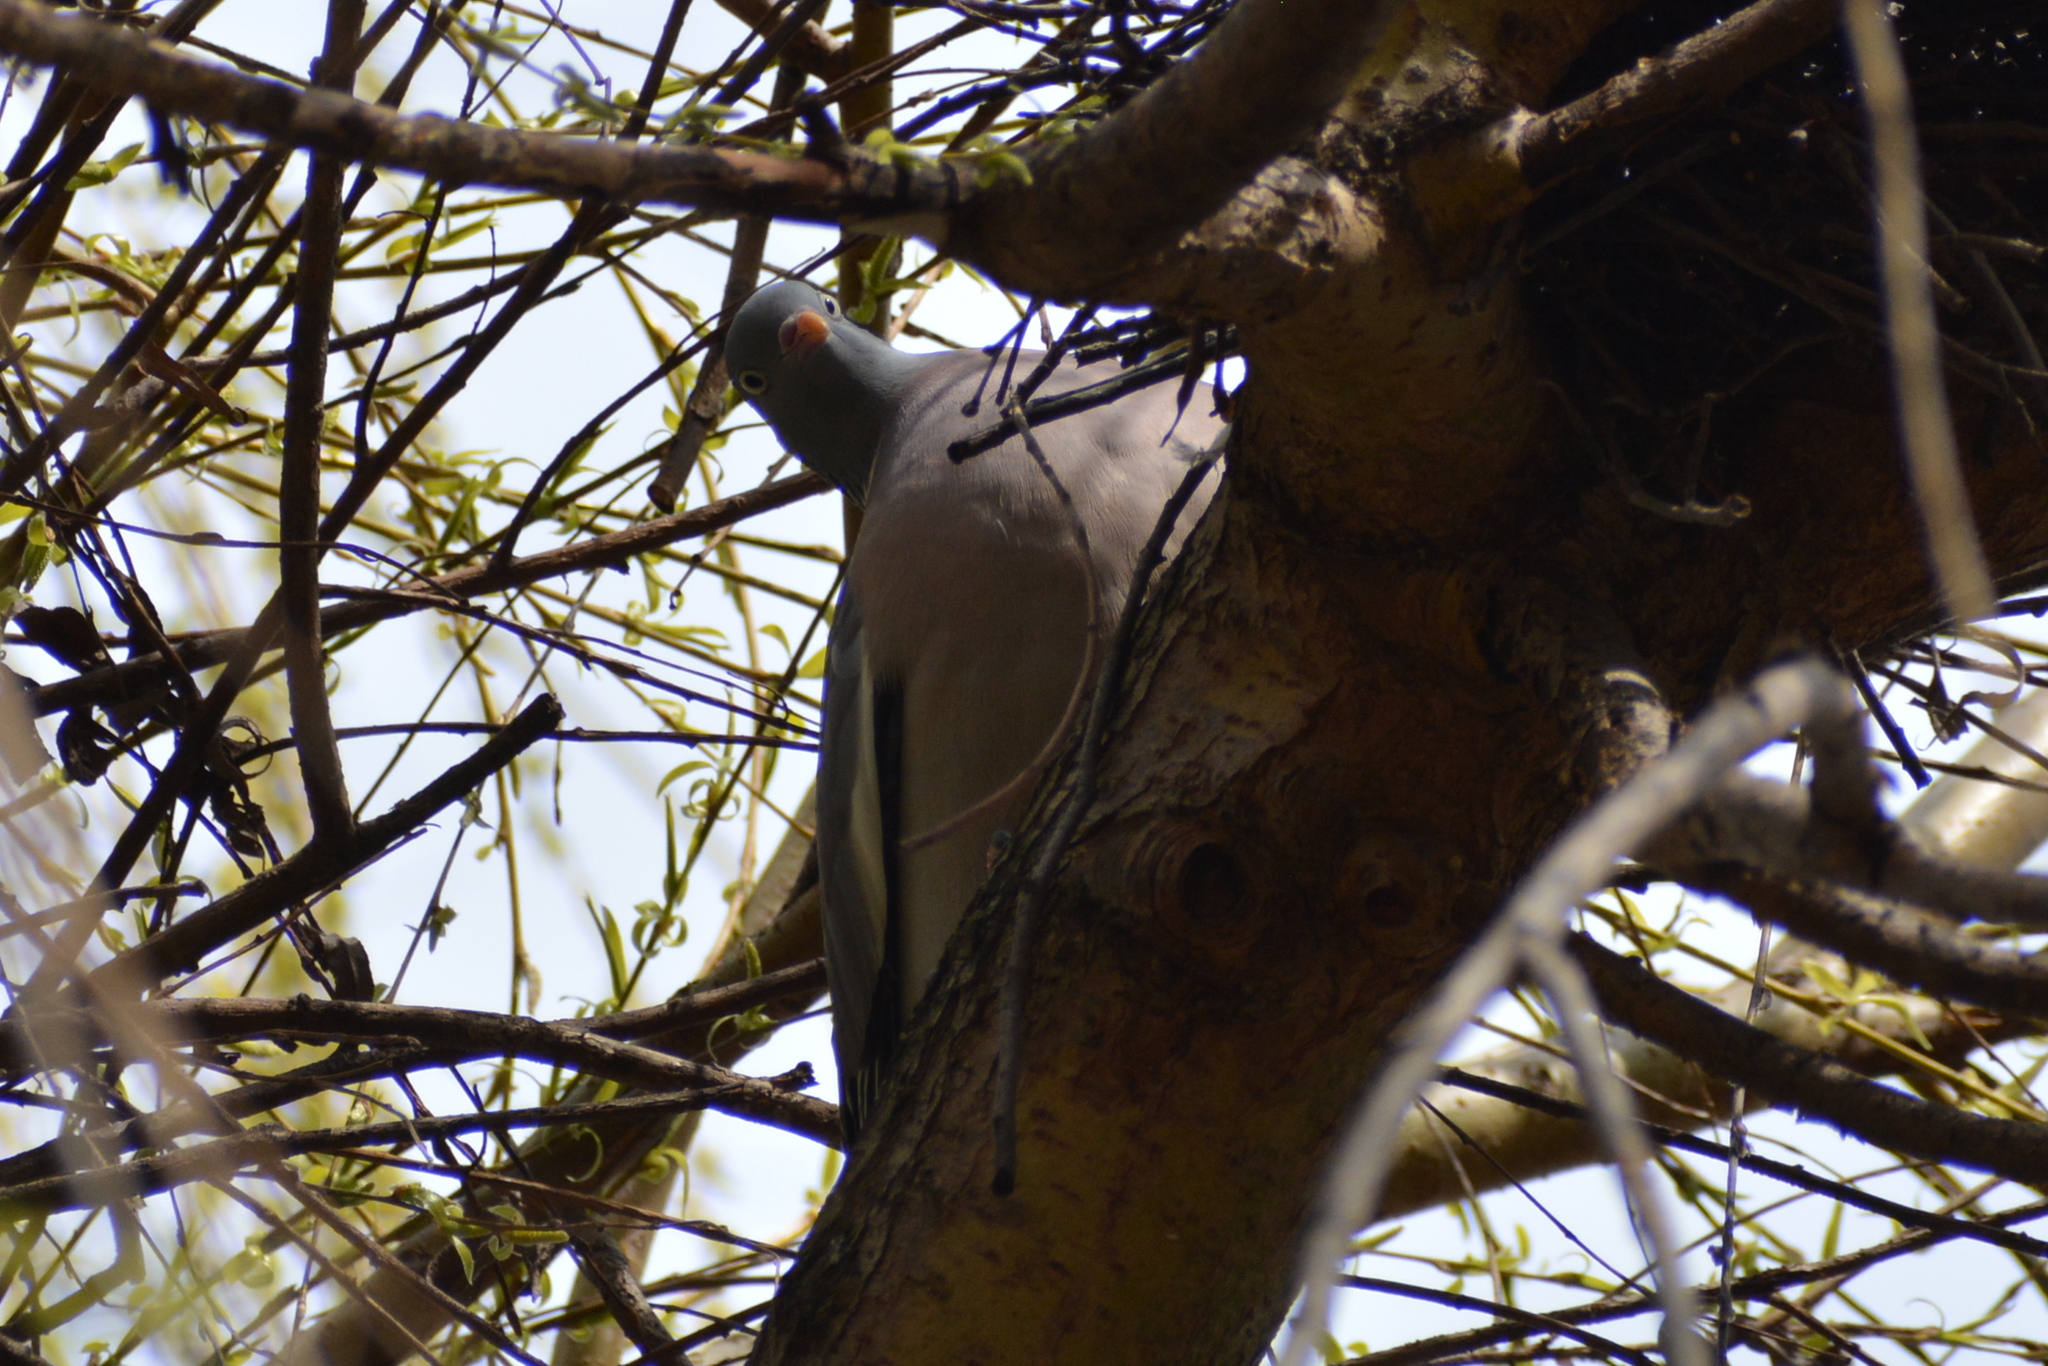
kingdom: Animalia
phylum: Chordata
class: Aves
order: Columbiformes
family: Columbidae
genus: Columba
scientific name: Columba palumbus
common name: Common wood pigeon
